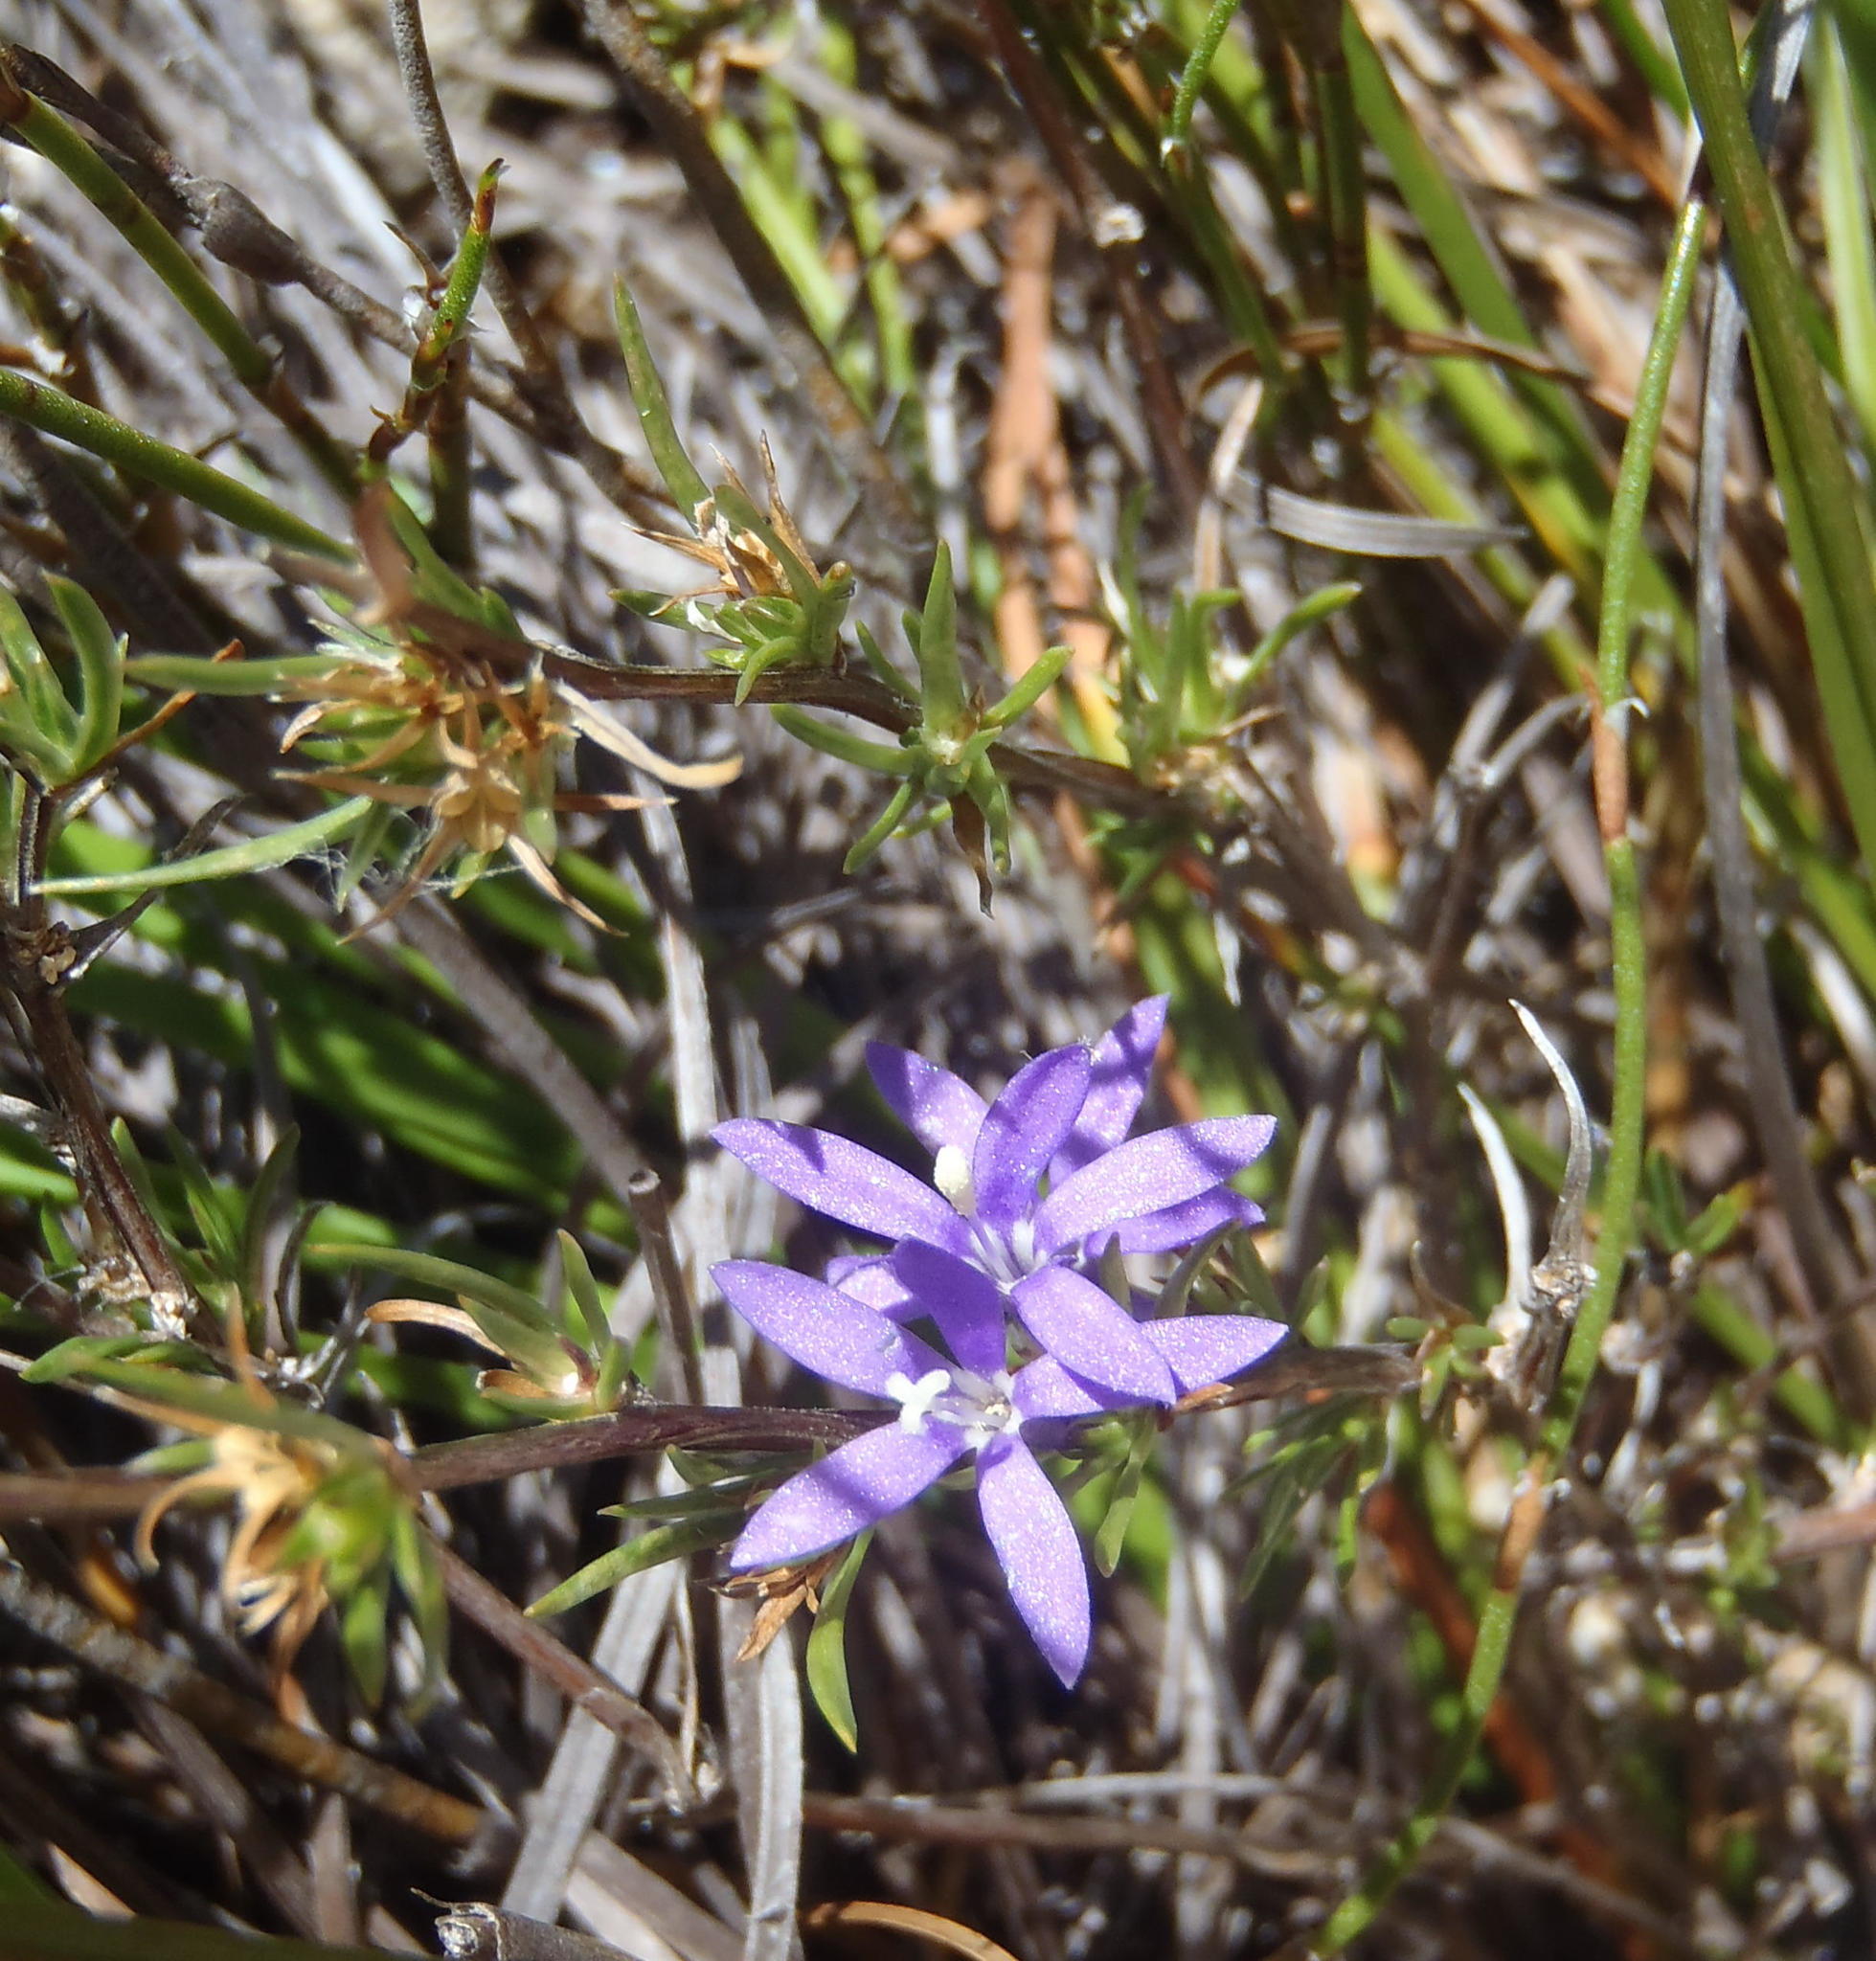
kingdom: Plantae
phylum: Tracheophyta
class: Magnoliopsida
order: Asterales
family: Campanulaceae
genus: Theilera
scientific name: Theilera guthriei
